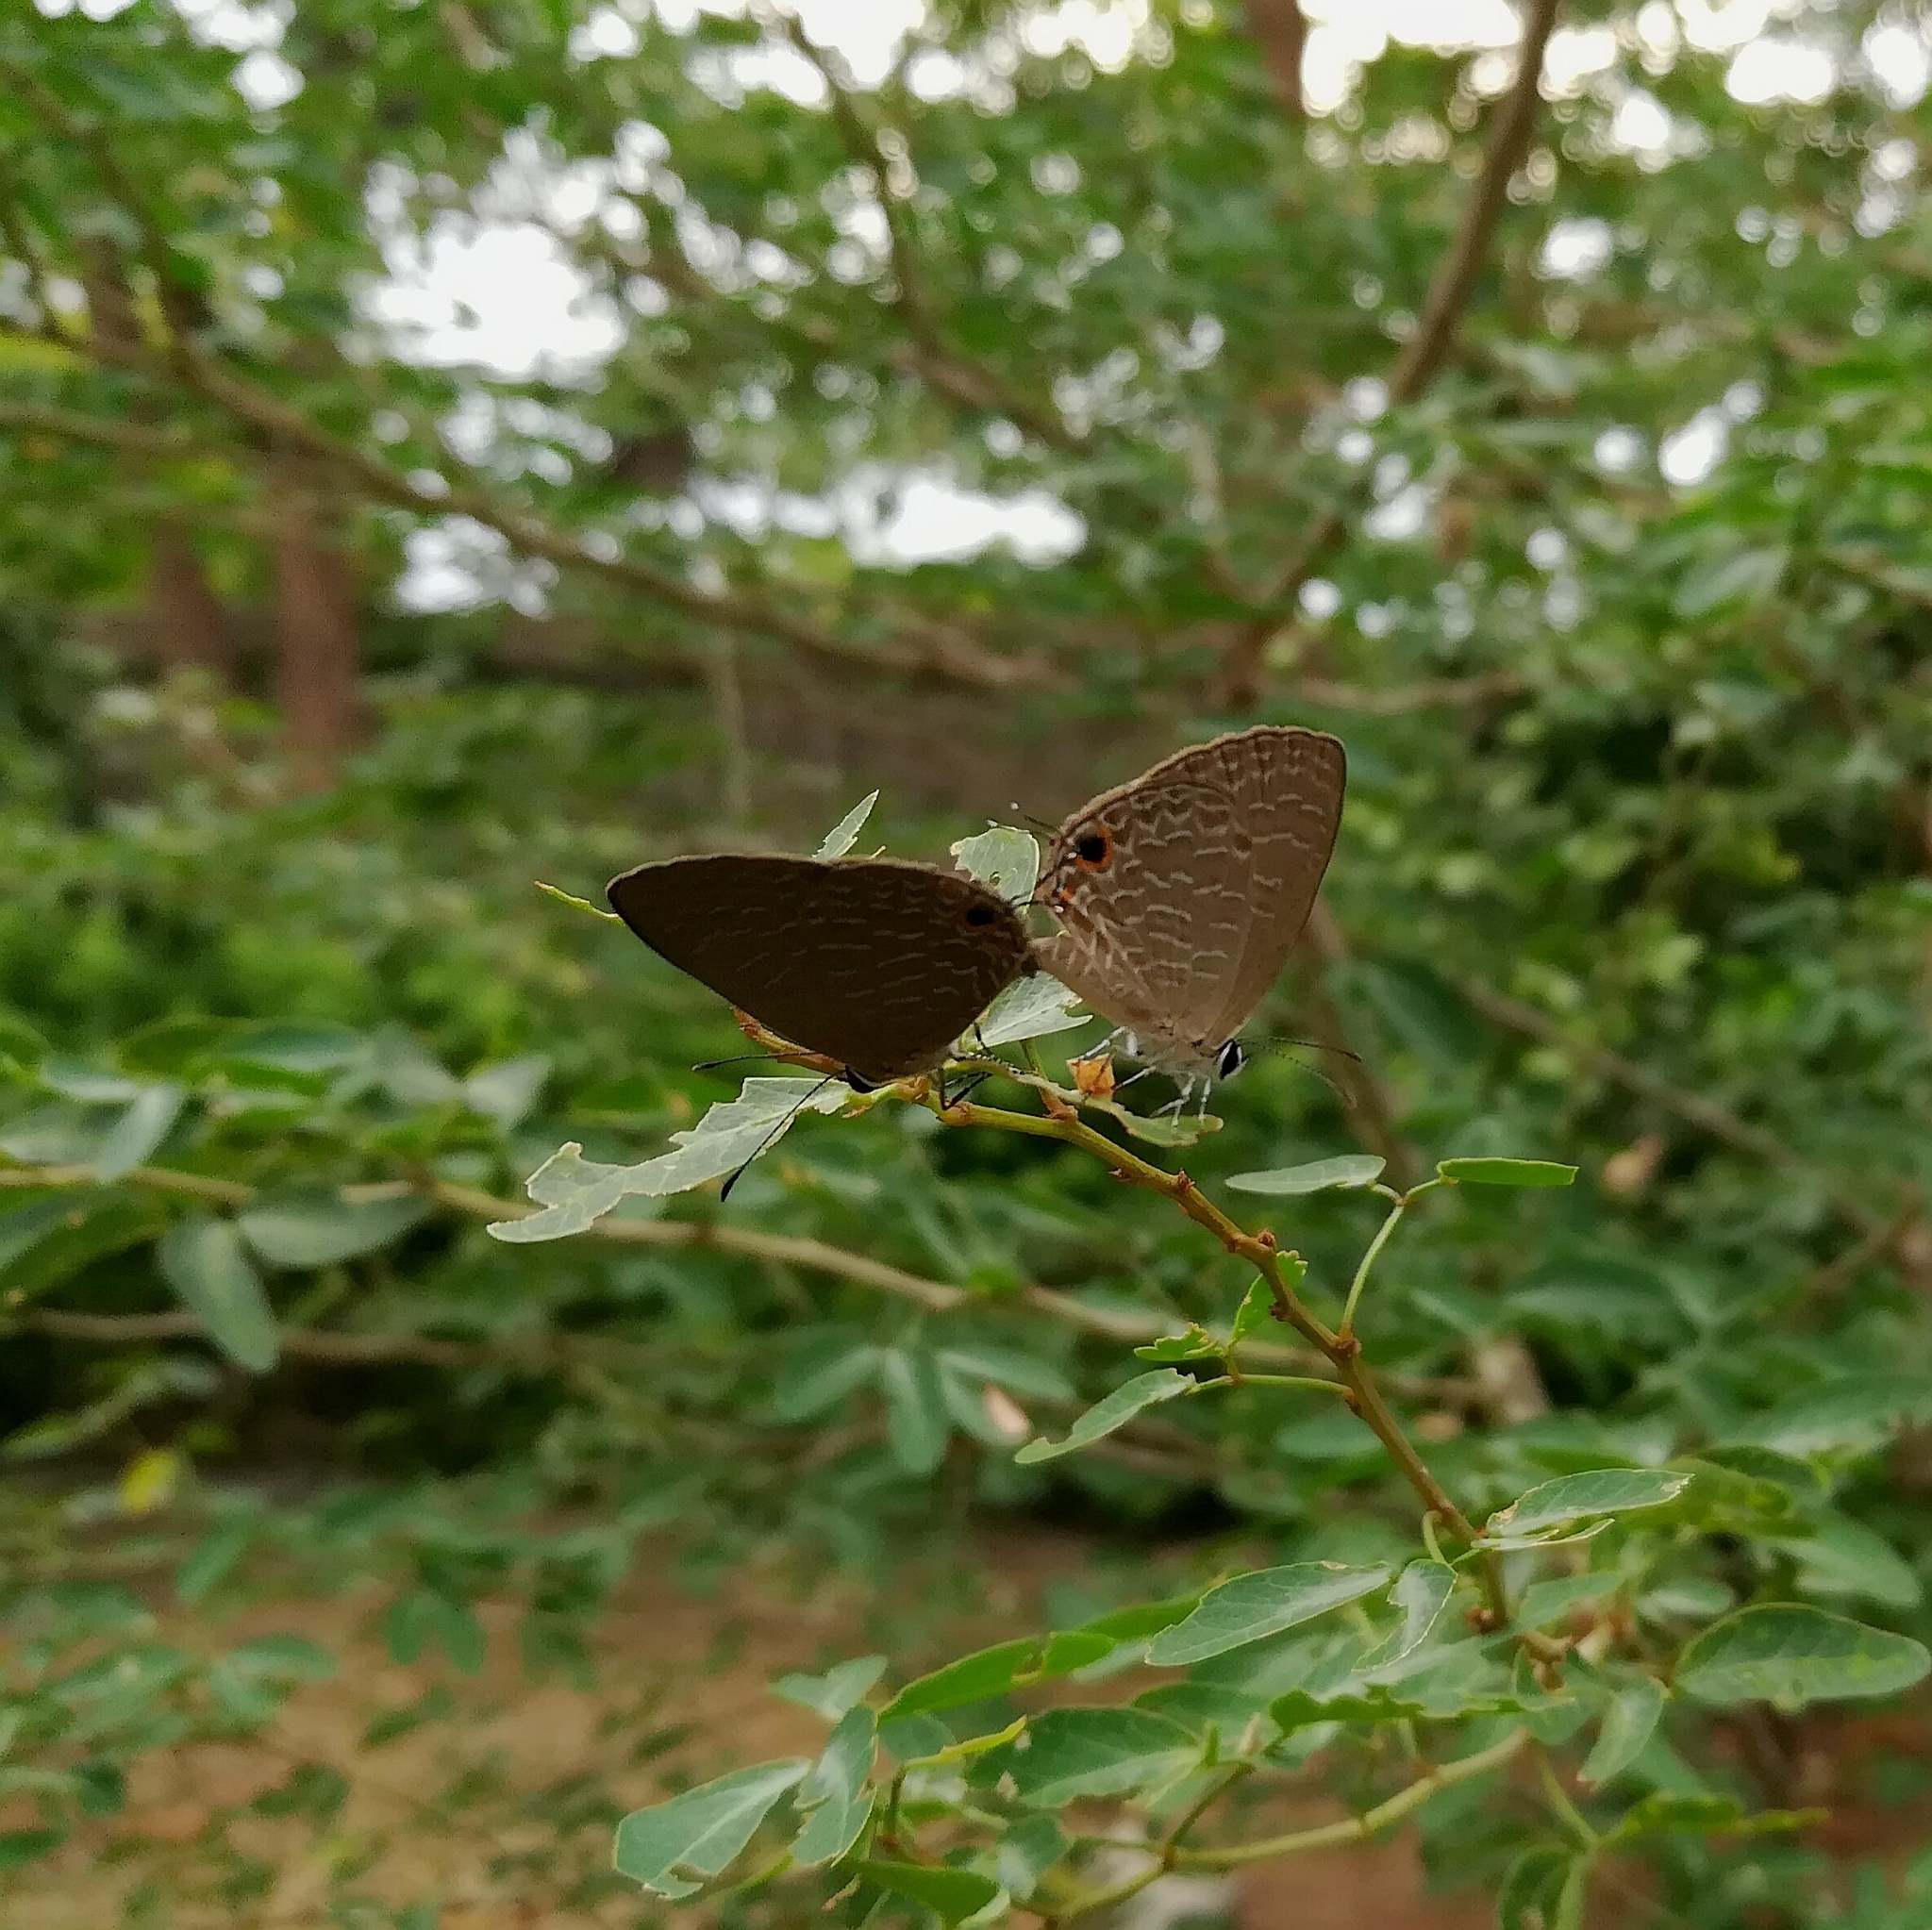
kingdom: Animalia
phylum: Arthropoda
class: Insecta
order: Lepidoptera
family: Lycaenidae
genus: Jamides
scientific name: Jamides bochus
